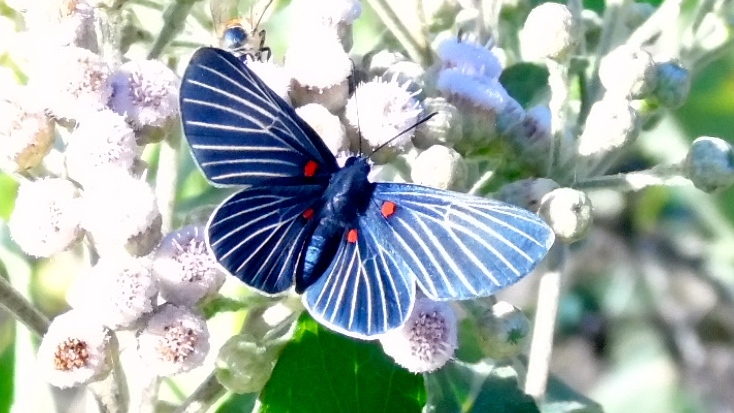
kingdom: Animalia
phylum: Arthropoda
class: Insecta
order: Lepidoptera
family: Lycaenidae
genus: Melanis
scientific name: Melanis
